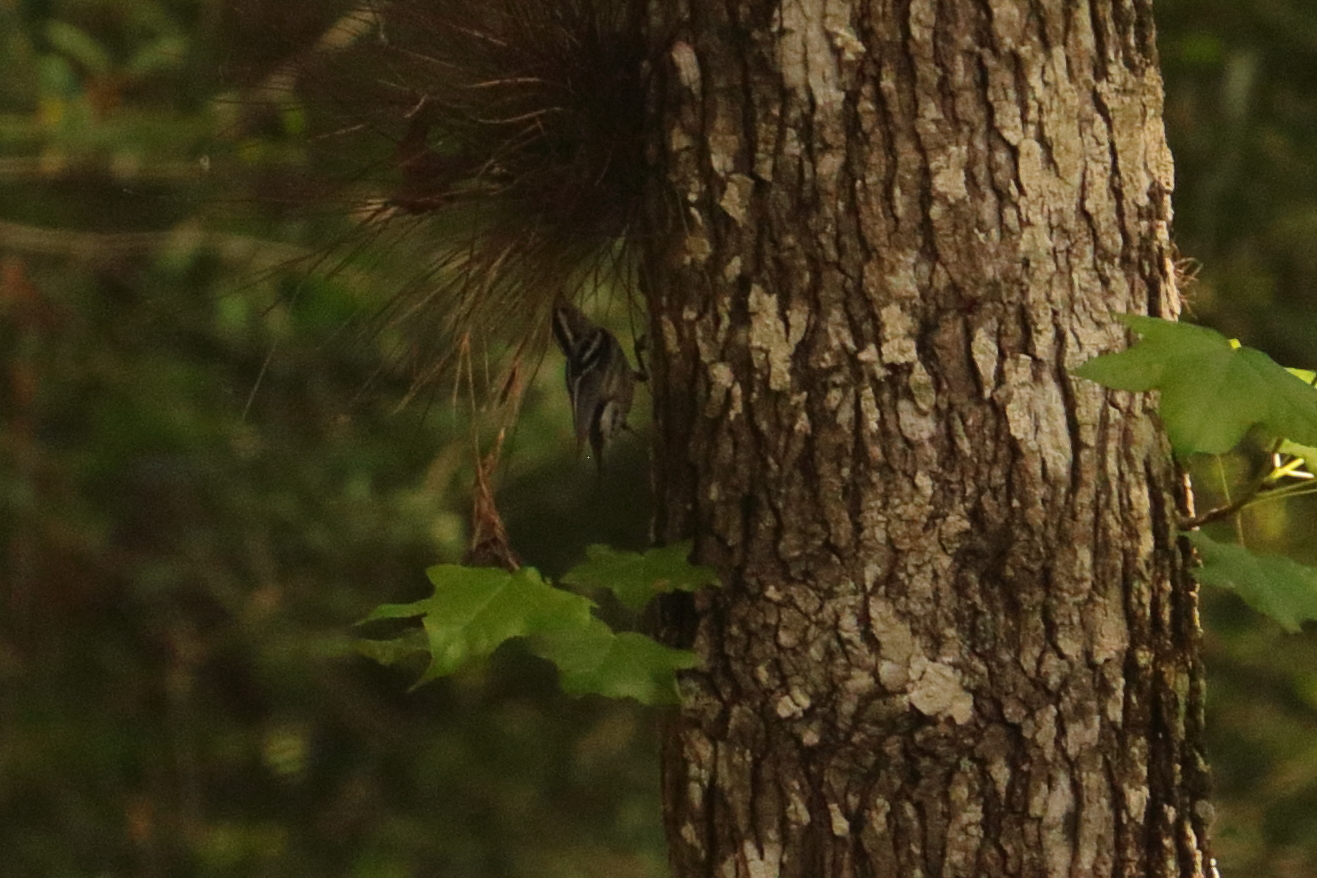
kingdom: Animalia
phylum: Chordata
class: Aves
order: Passeriformes
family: Parulidae
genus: Mniotilta
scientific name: Mniotilta varia
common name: Black-and-white warbler
